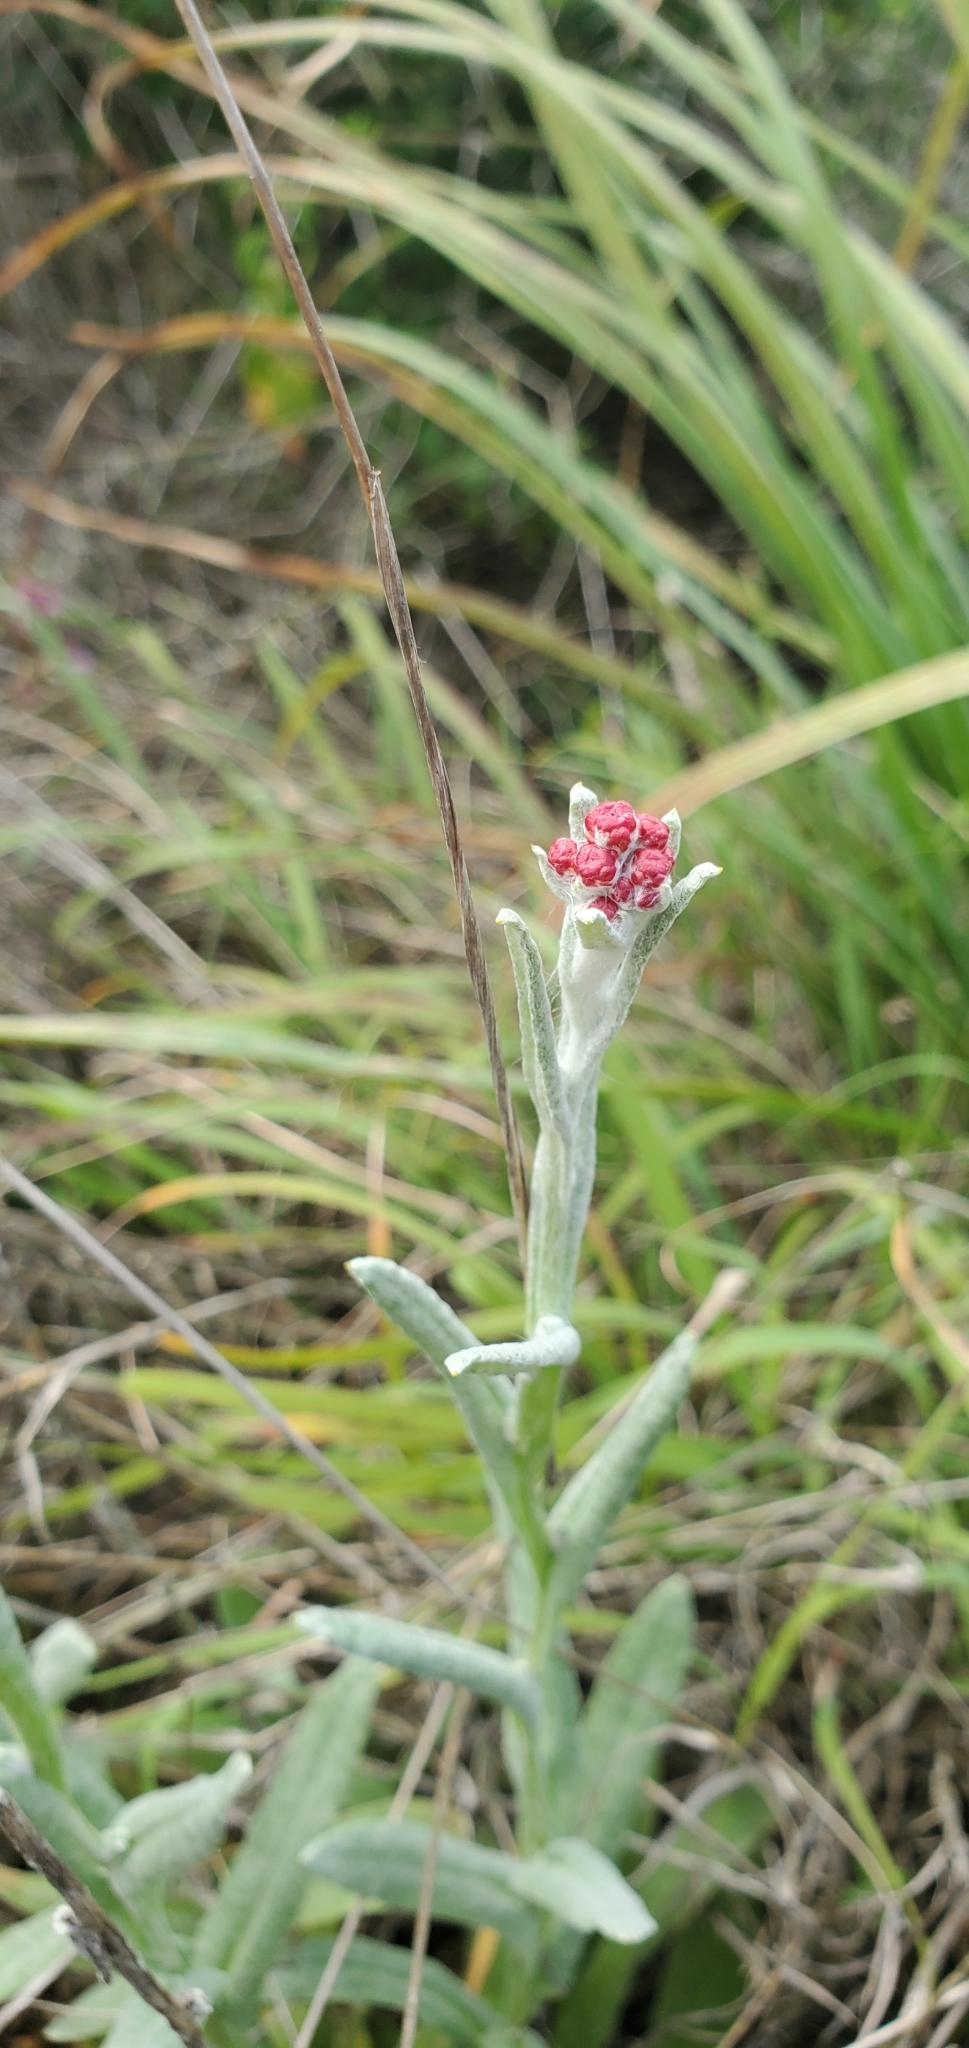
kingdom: Plantae
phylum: Tracheophyta
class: Magnoliopsida
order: Asterales
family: Asteraceae
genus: Helichrysum
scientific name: Helichrysum sanguineum
